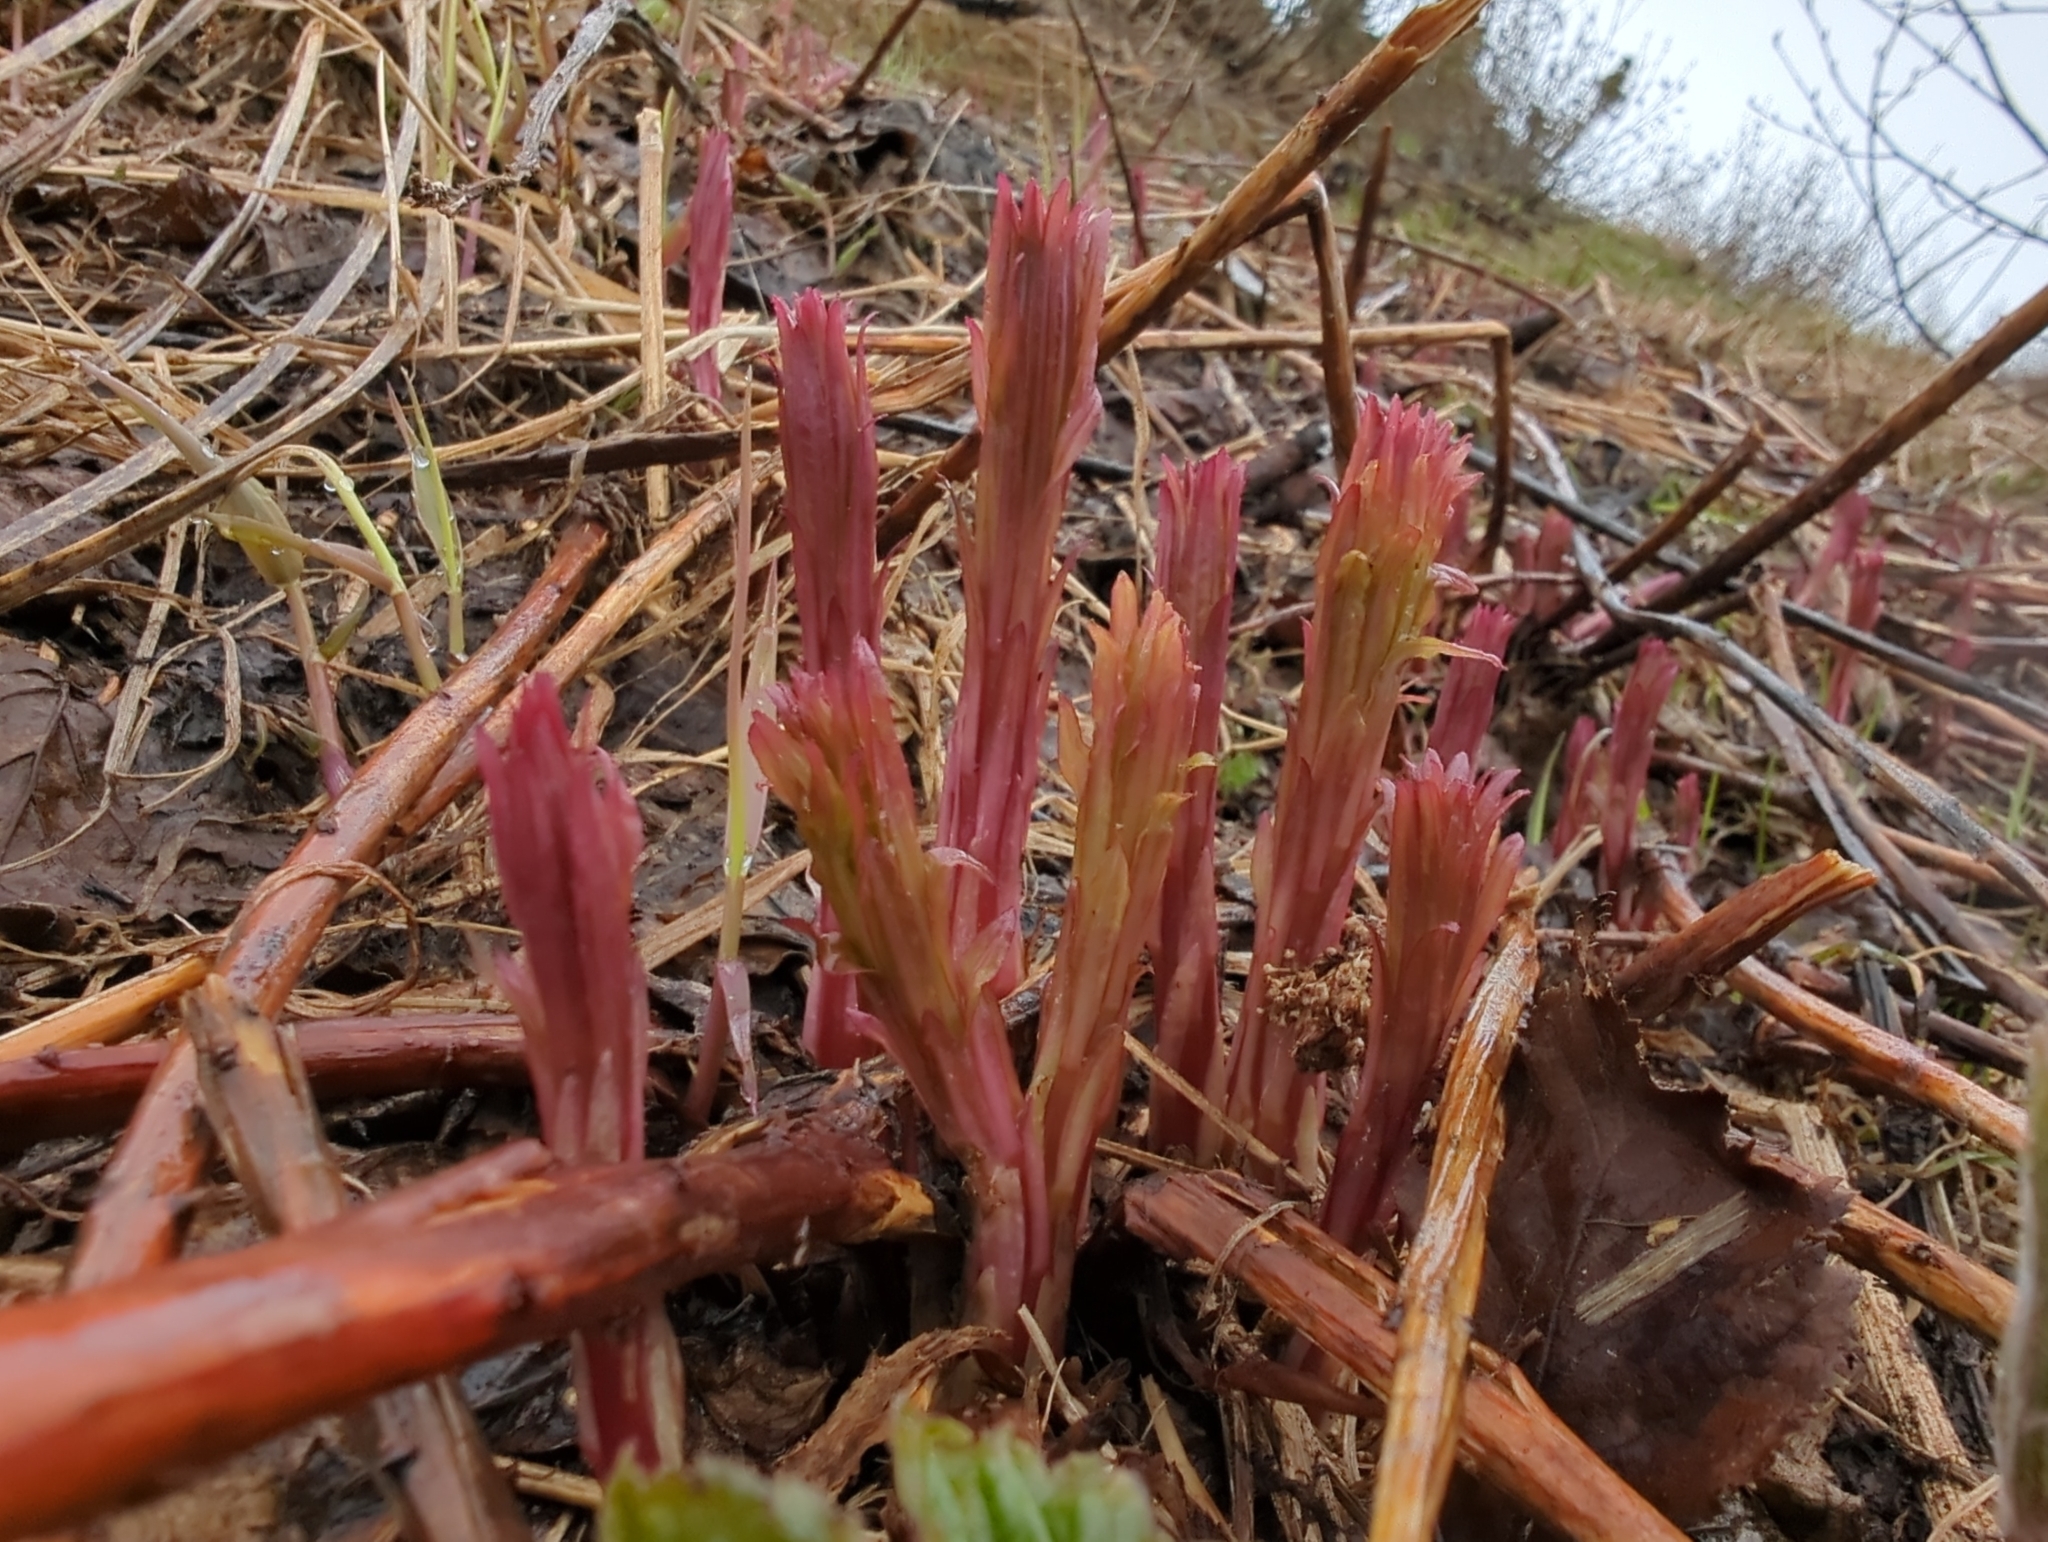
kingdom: Plantae
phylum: Tracheophyta
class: Magnoliopsida
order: Myrtales
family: Onagraceae
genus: Chamaenerion
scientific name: Chamaenerion angustifolium
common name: Fireweed
